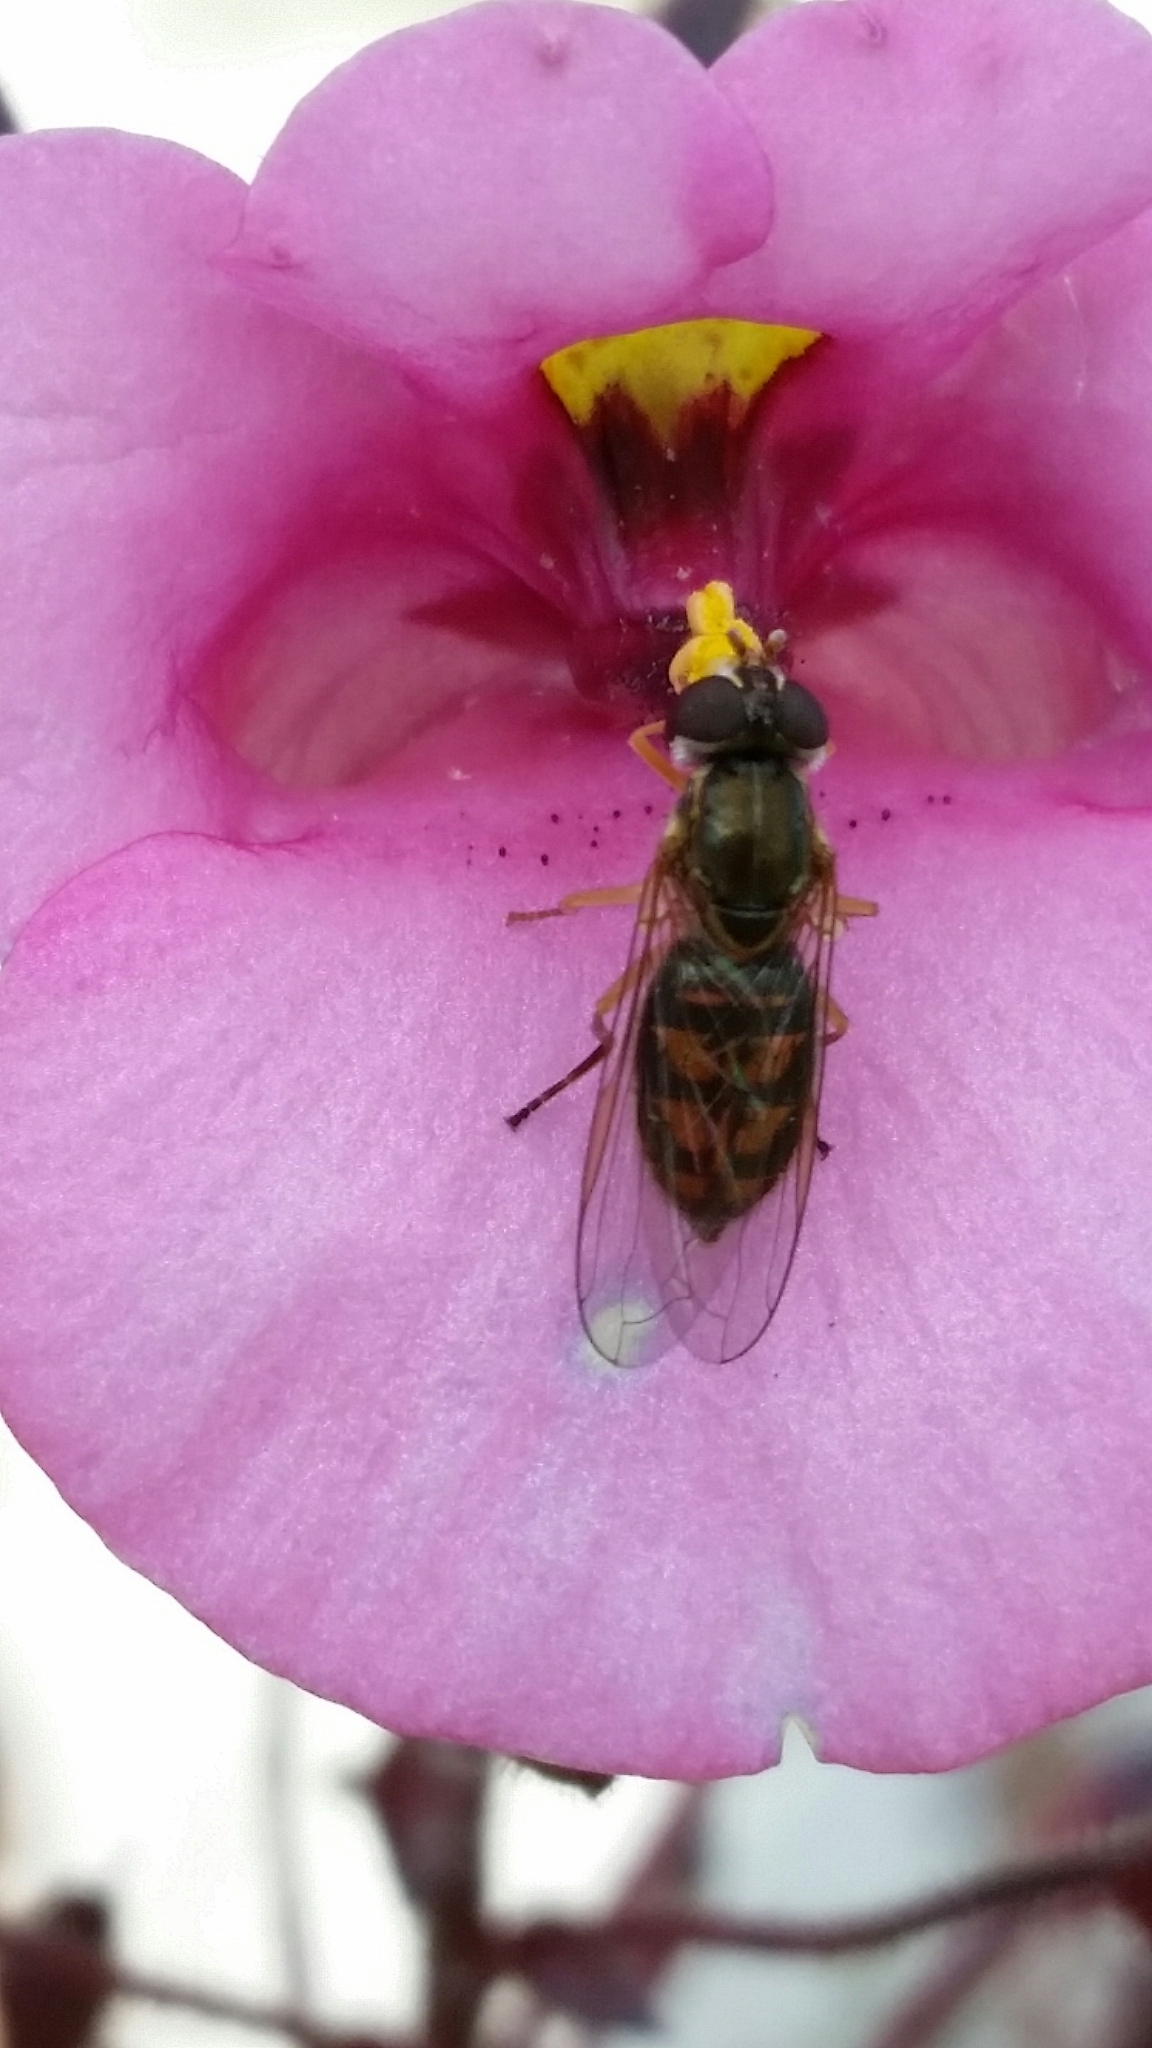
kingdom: Animalia
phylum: Arthropoda
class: Insecta
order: Diptera
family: Syrphidae
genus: Toxomerus
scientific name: Toxomerus marginatus
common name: Syrphid fly
